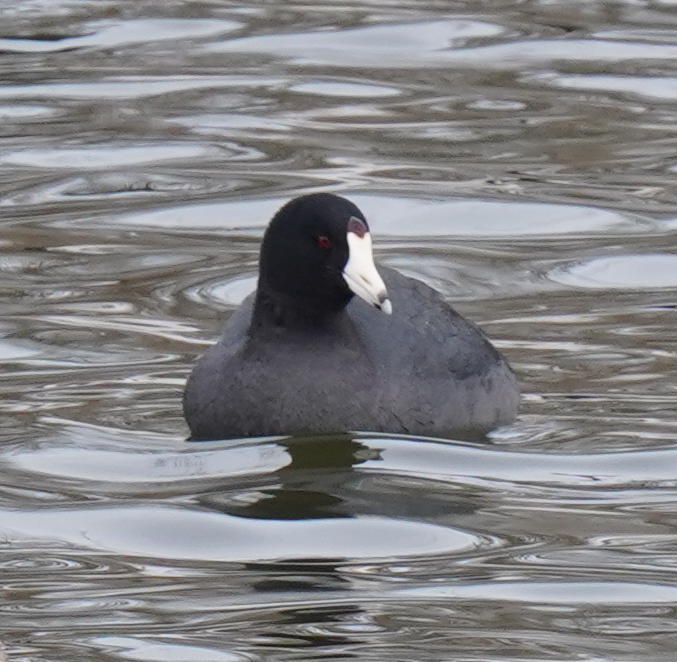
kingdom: Animalia
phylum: Chordata
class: Aves
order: Gruiformes
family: Rallidae
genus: Fulica
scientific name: Fulica americana
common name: American coot
